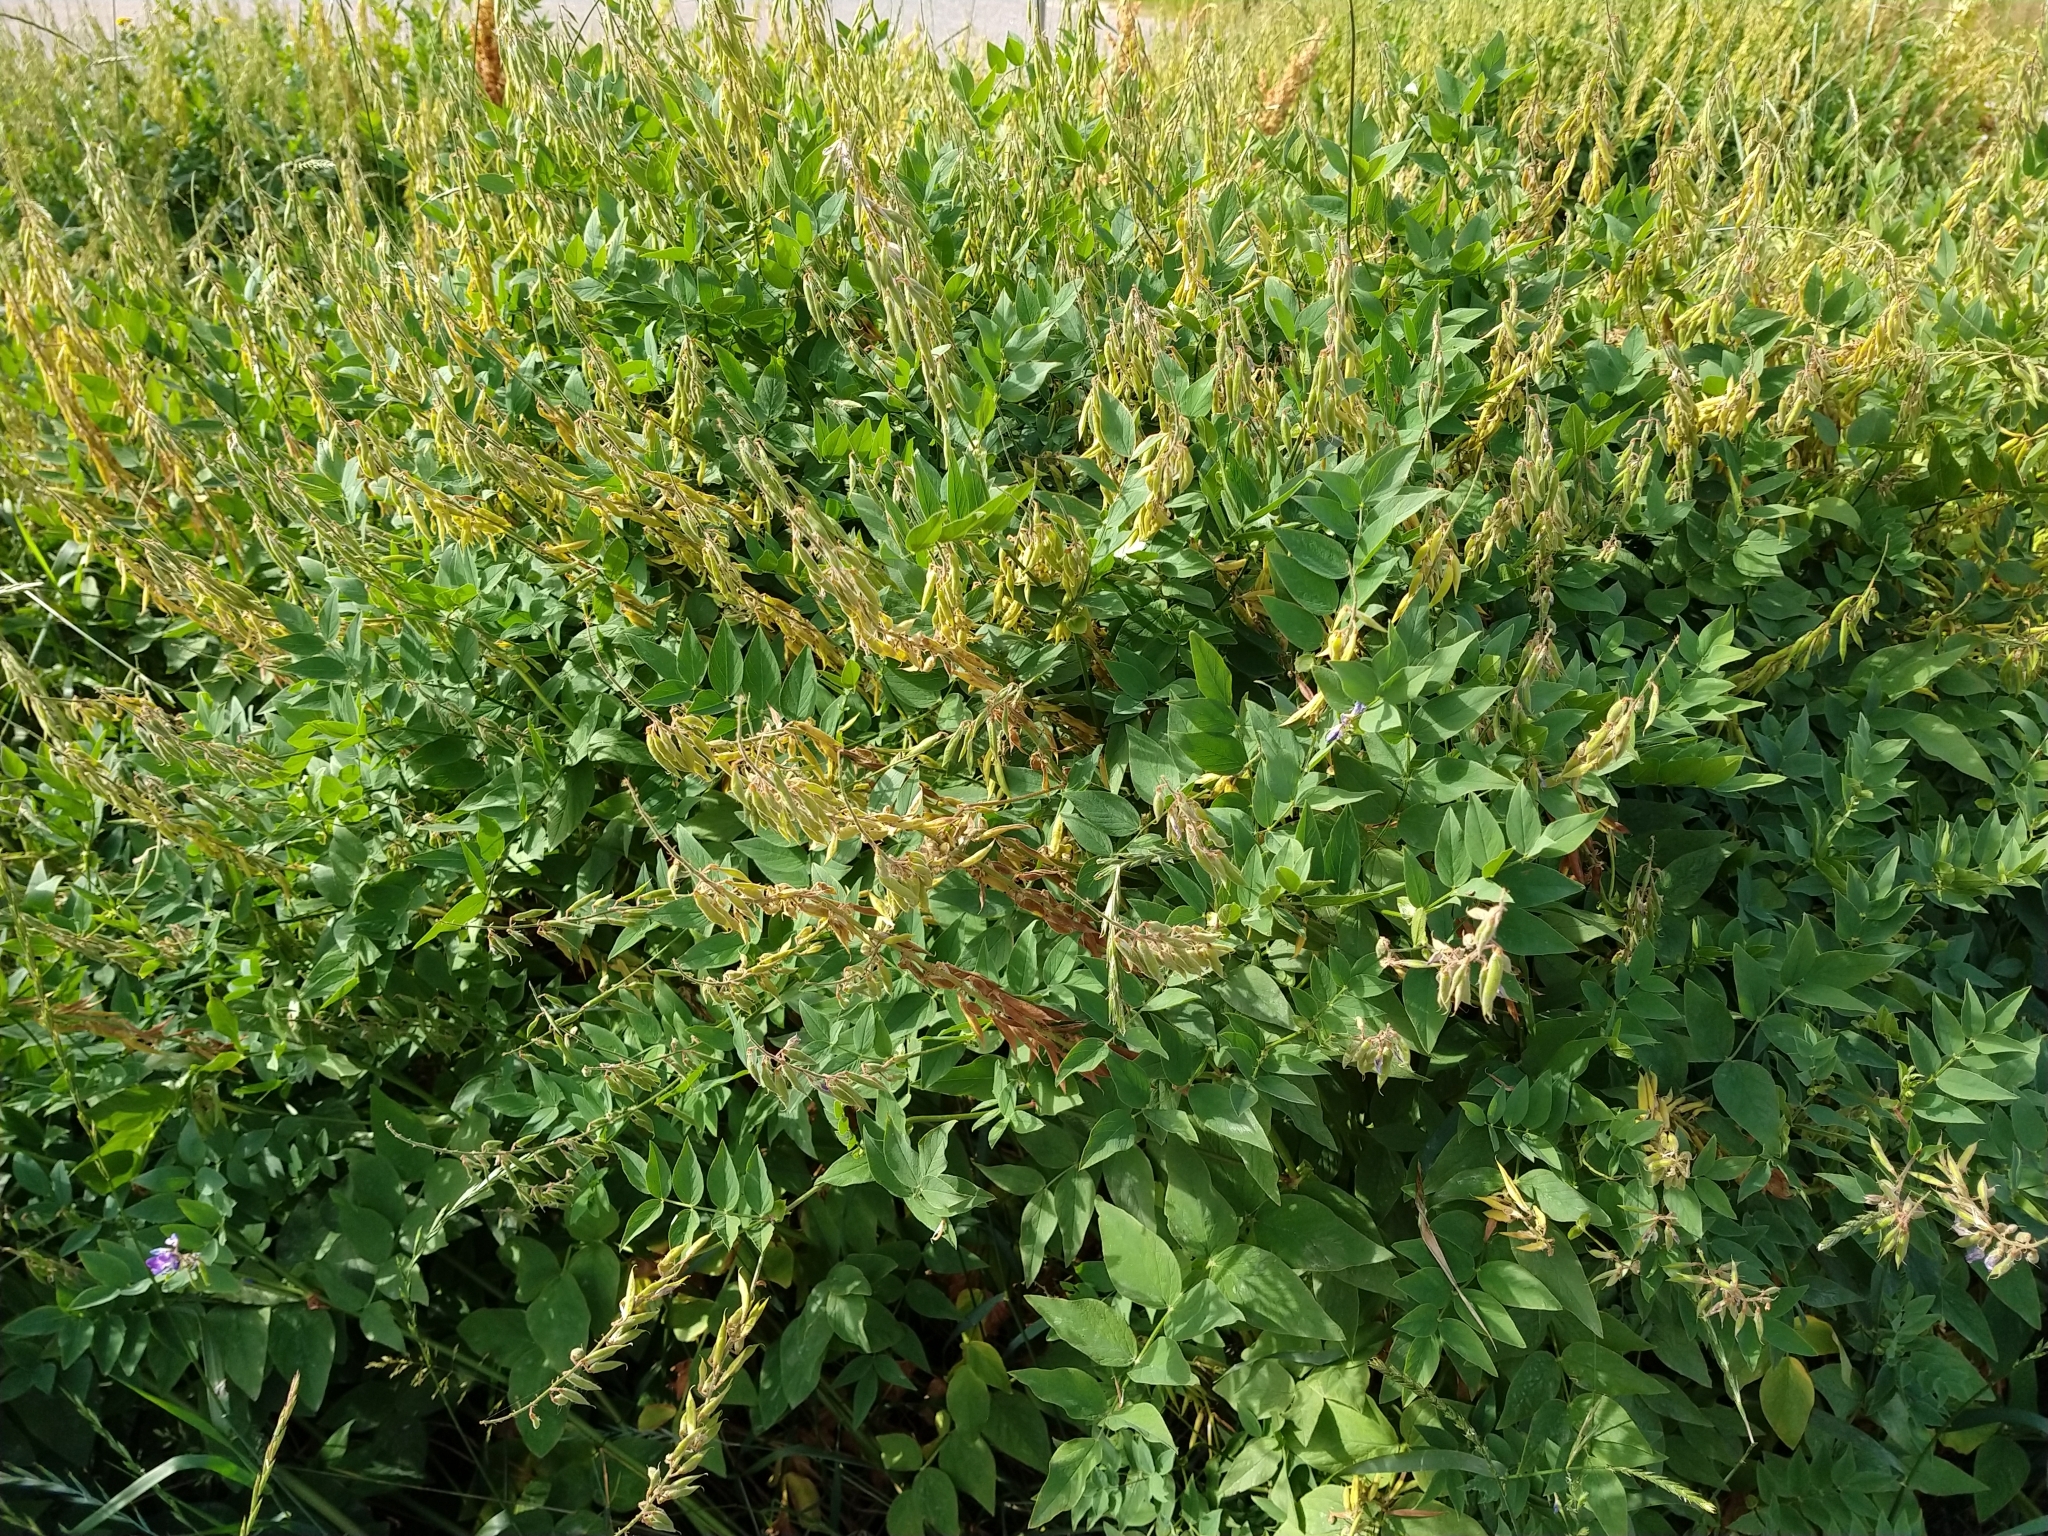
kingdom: Plantae
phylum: Tracheophyta
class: Magnoliopsida
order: Fabales
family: Fabaceae
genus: Galega
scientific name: Galega orientalis
